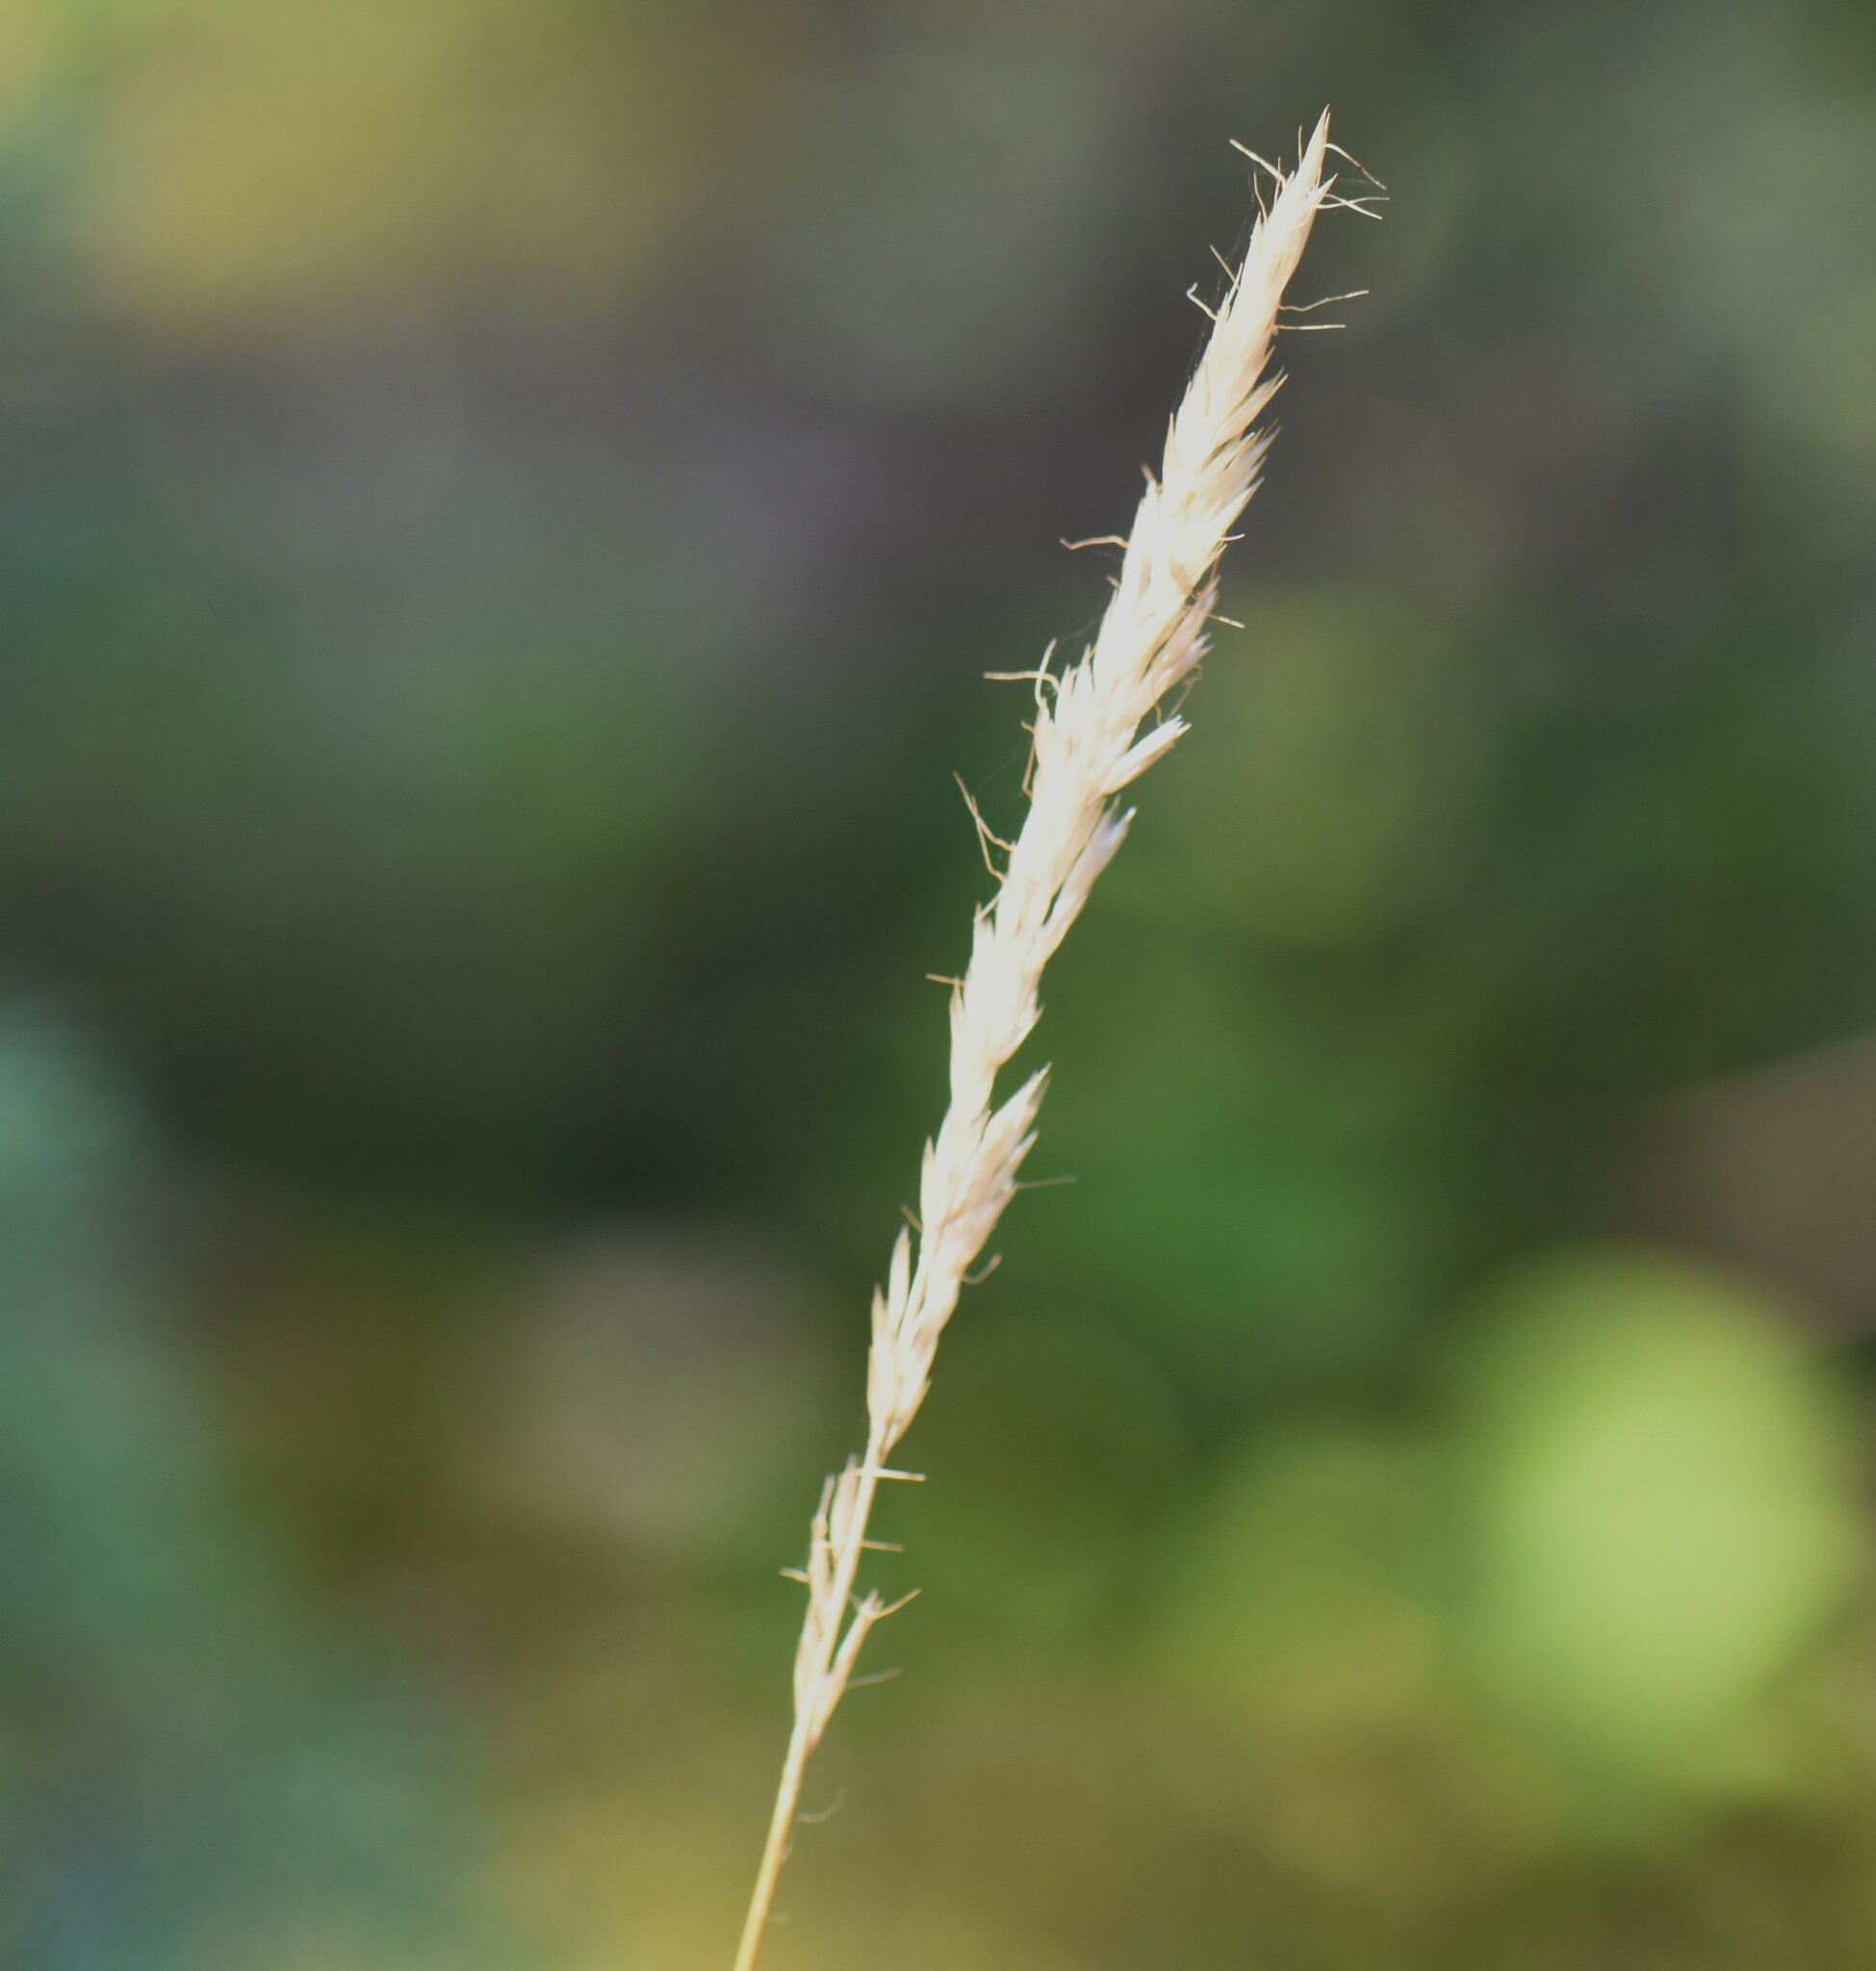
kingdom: Plantae
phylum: Tracheophyta
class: Liliopsida
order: Poales
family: Poaceae
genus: Koeleria
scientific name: Koeleria spicata
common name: Mountain trisetum
